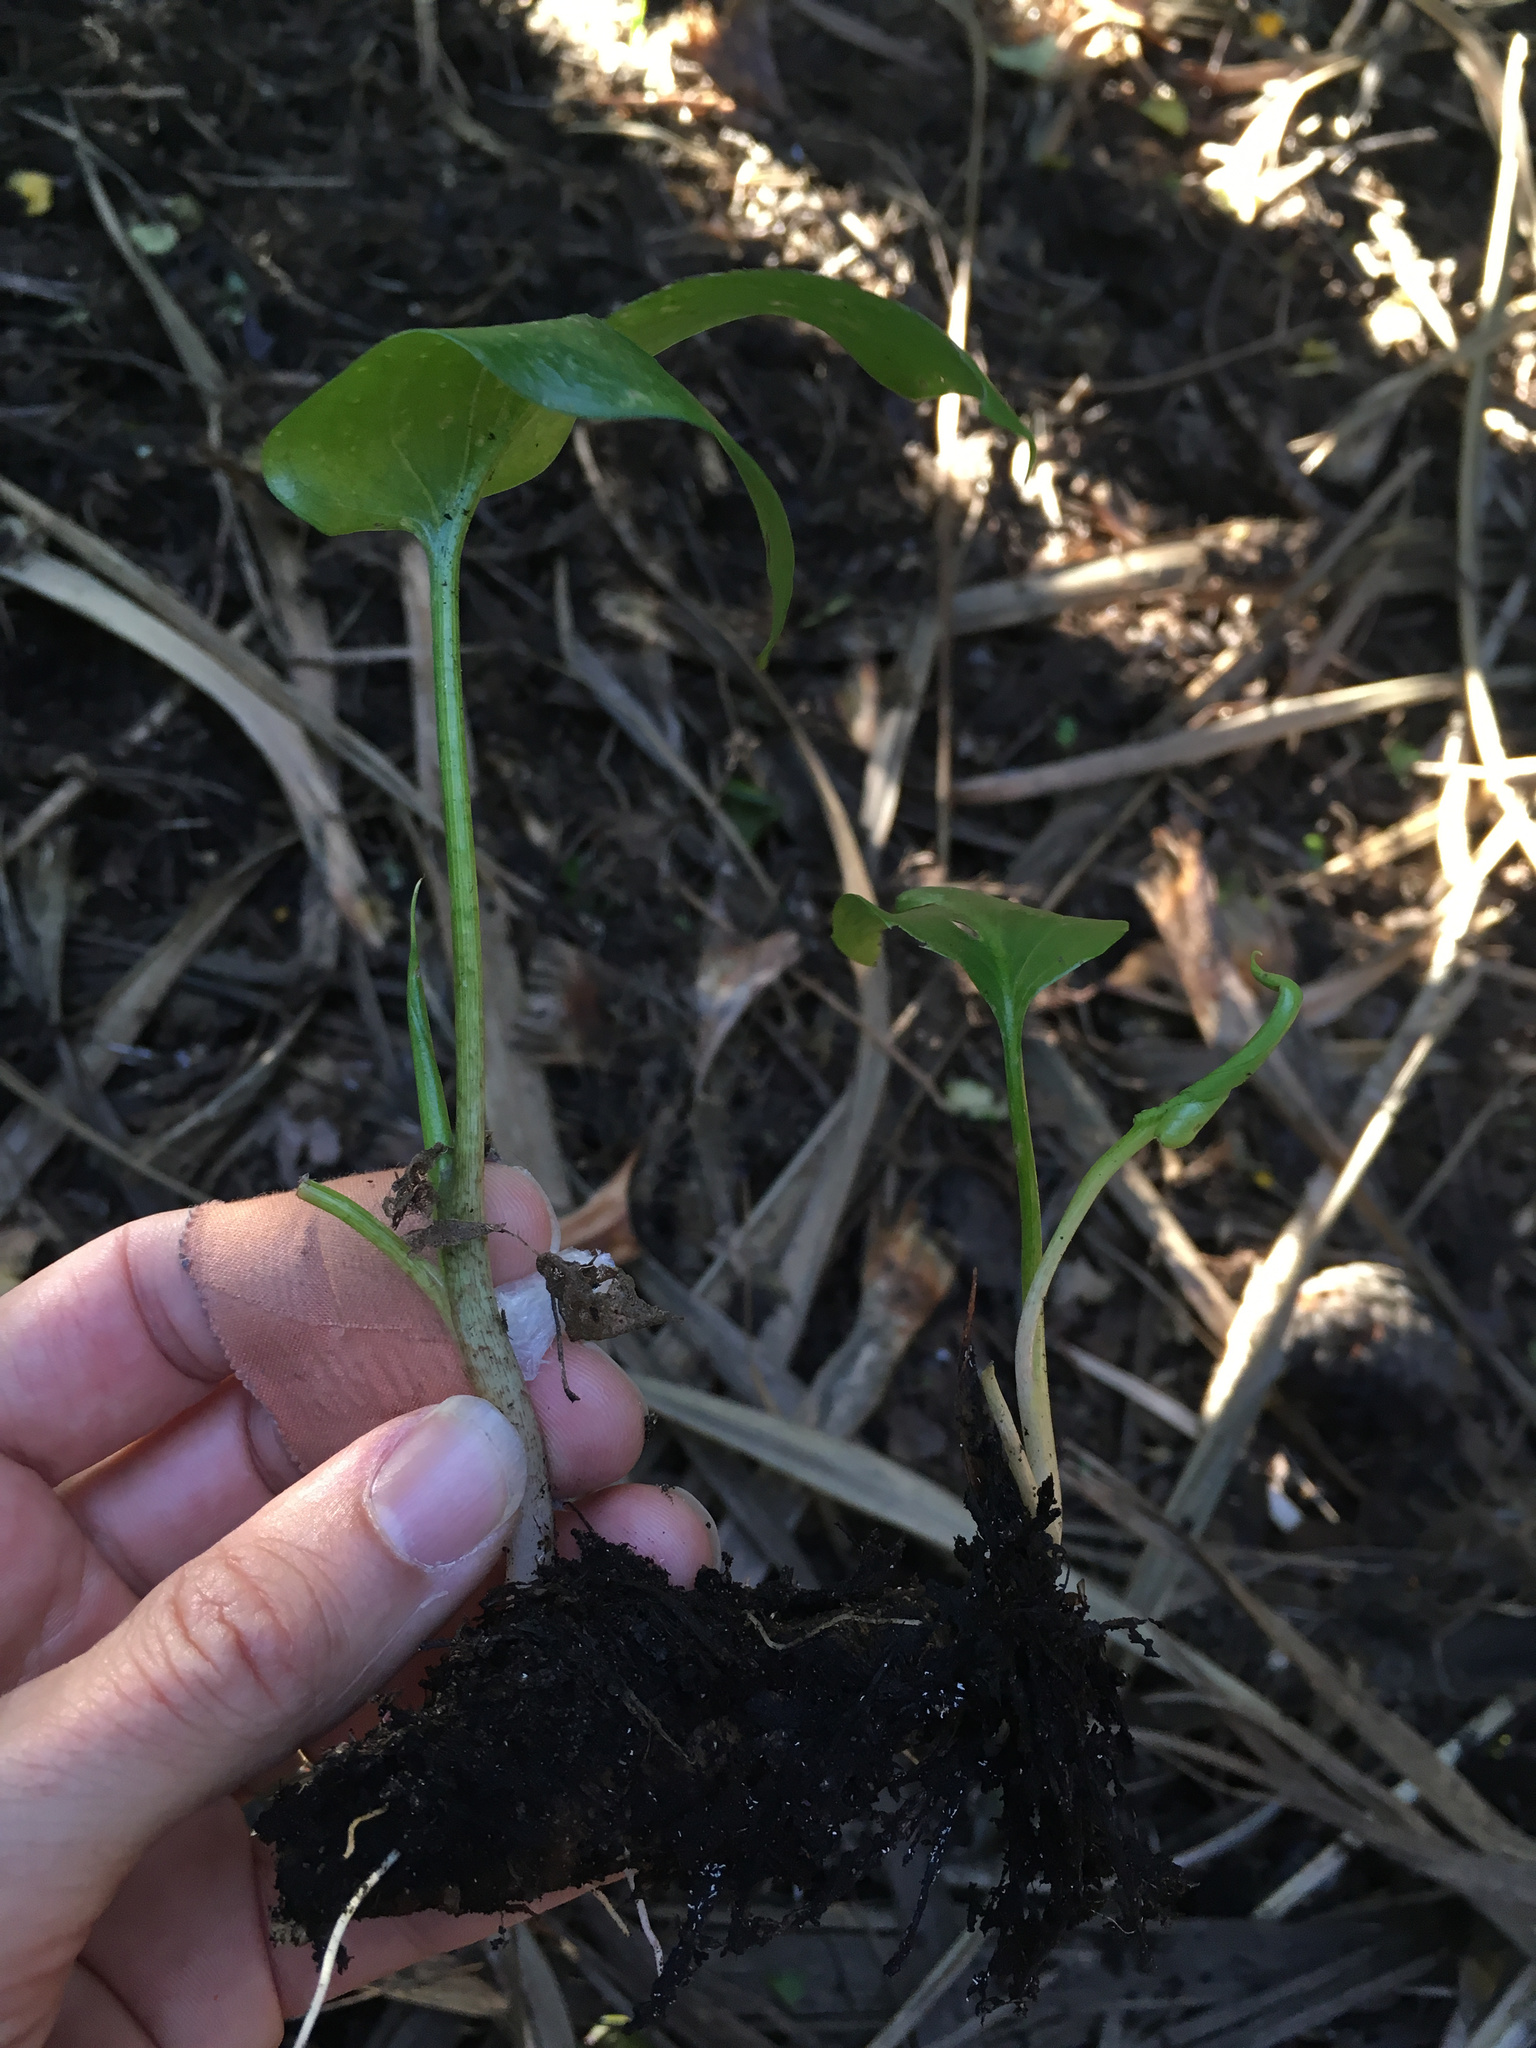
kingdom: Plantae
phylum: Tracheophyta
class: Liliopsida
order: Alismatales
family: Araceae
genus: Zantedeschia
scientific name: Zantedeschia aethiopica
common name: Altar-lily
